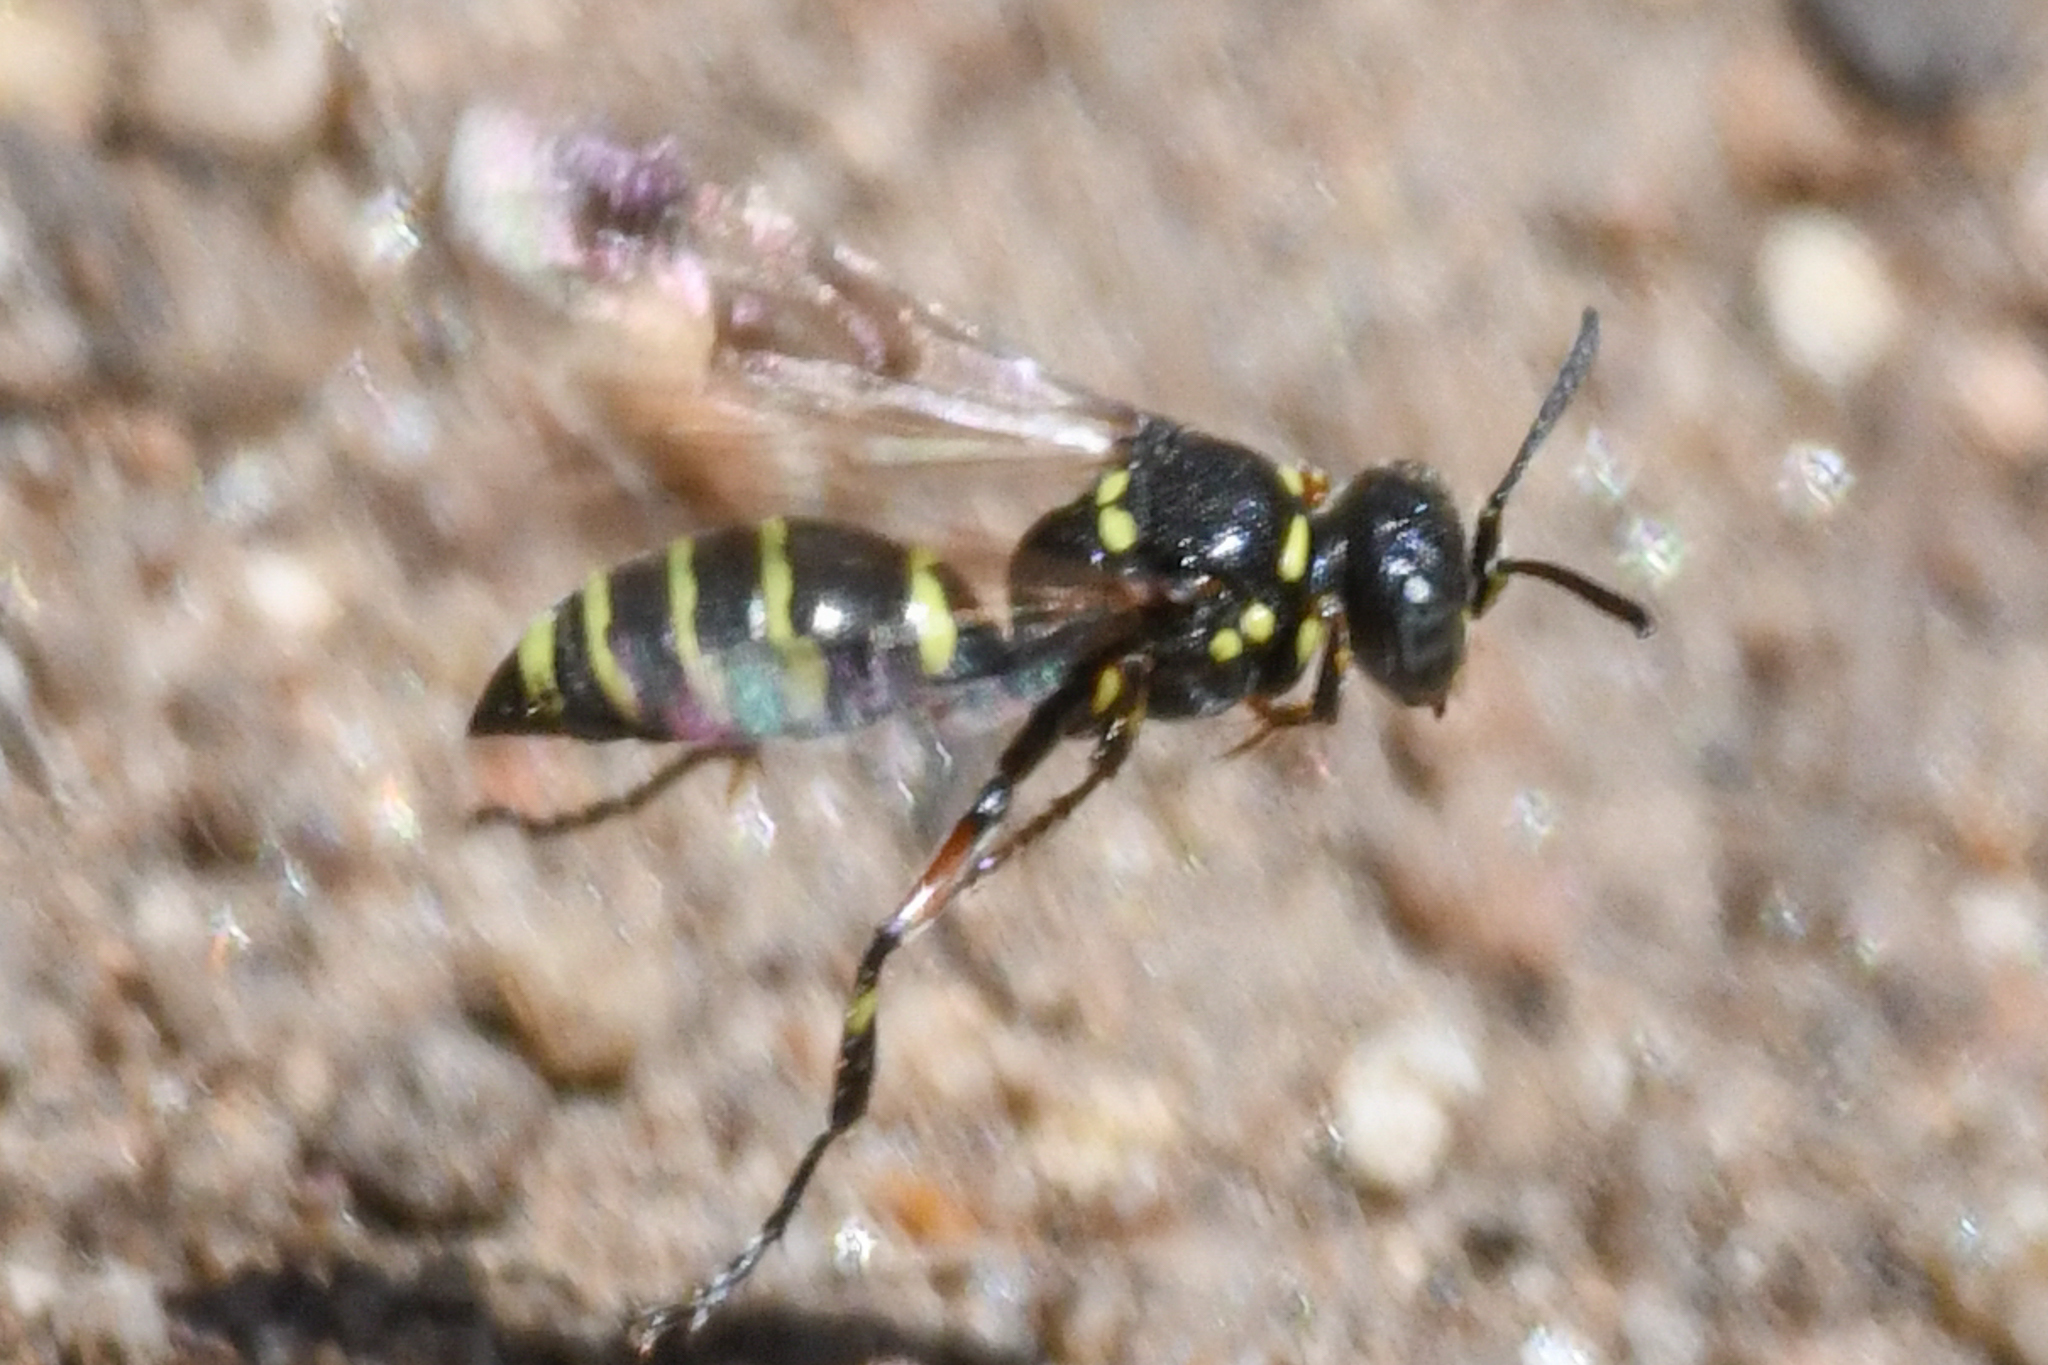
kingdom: Animalia
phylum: Arthropoda
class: Insecta
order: Hymenoptera
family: Crabronidae
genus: Hoplisoides
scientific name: Hoplisoides hamatus
